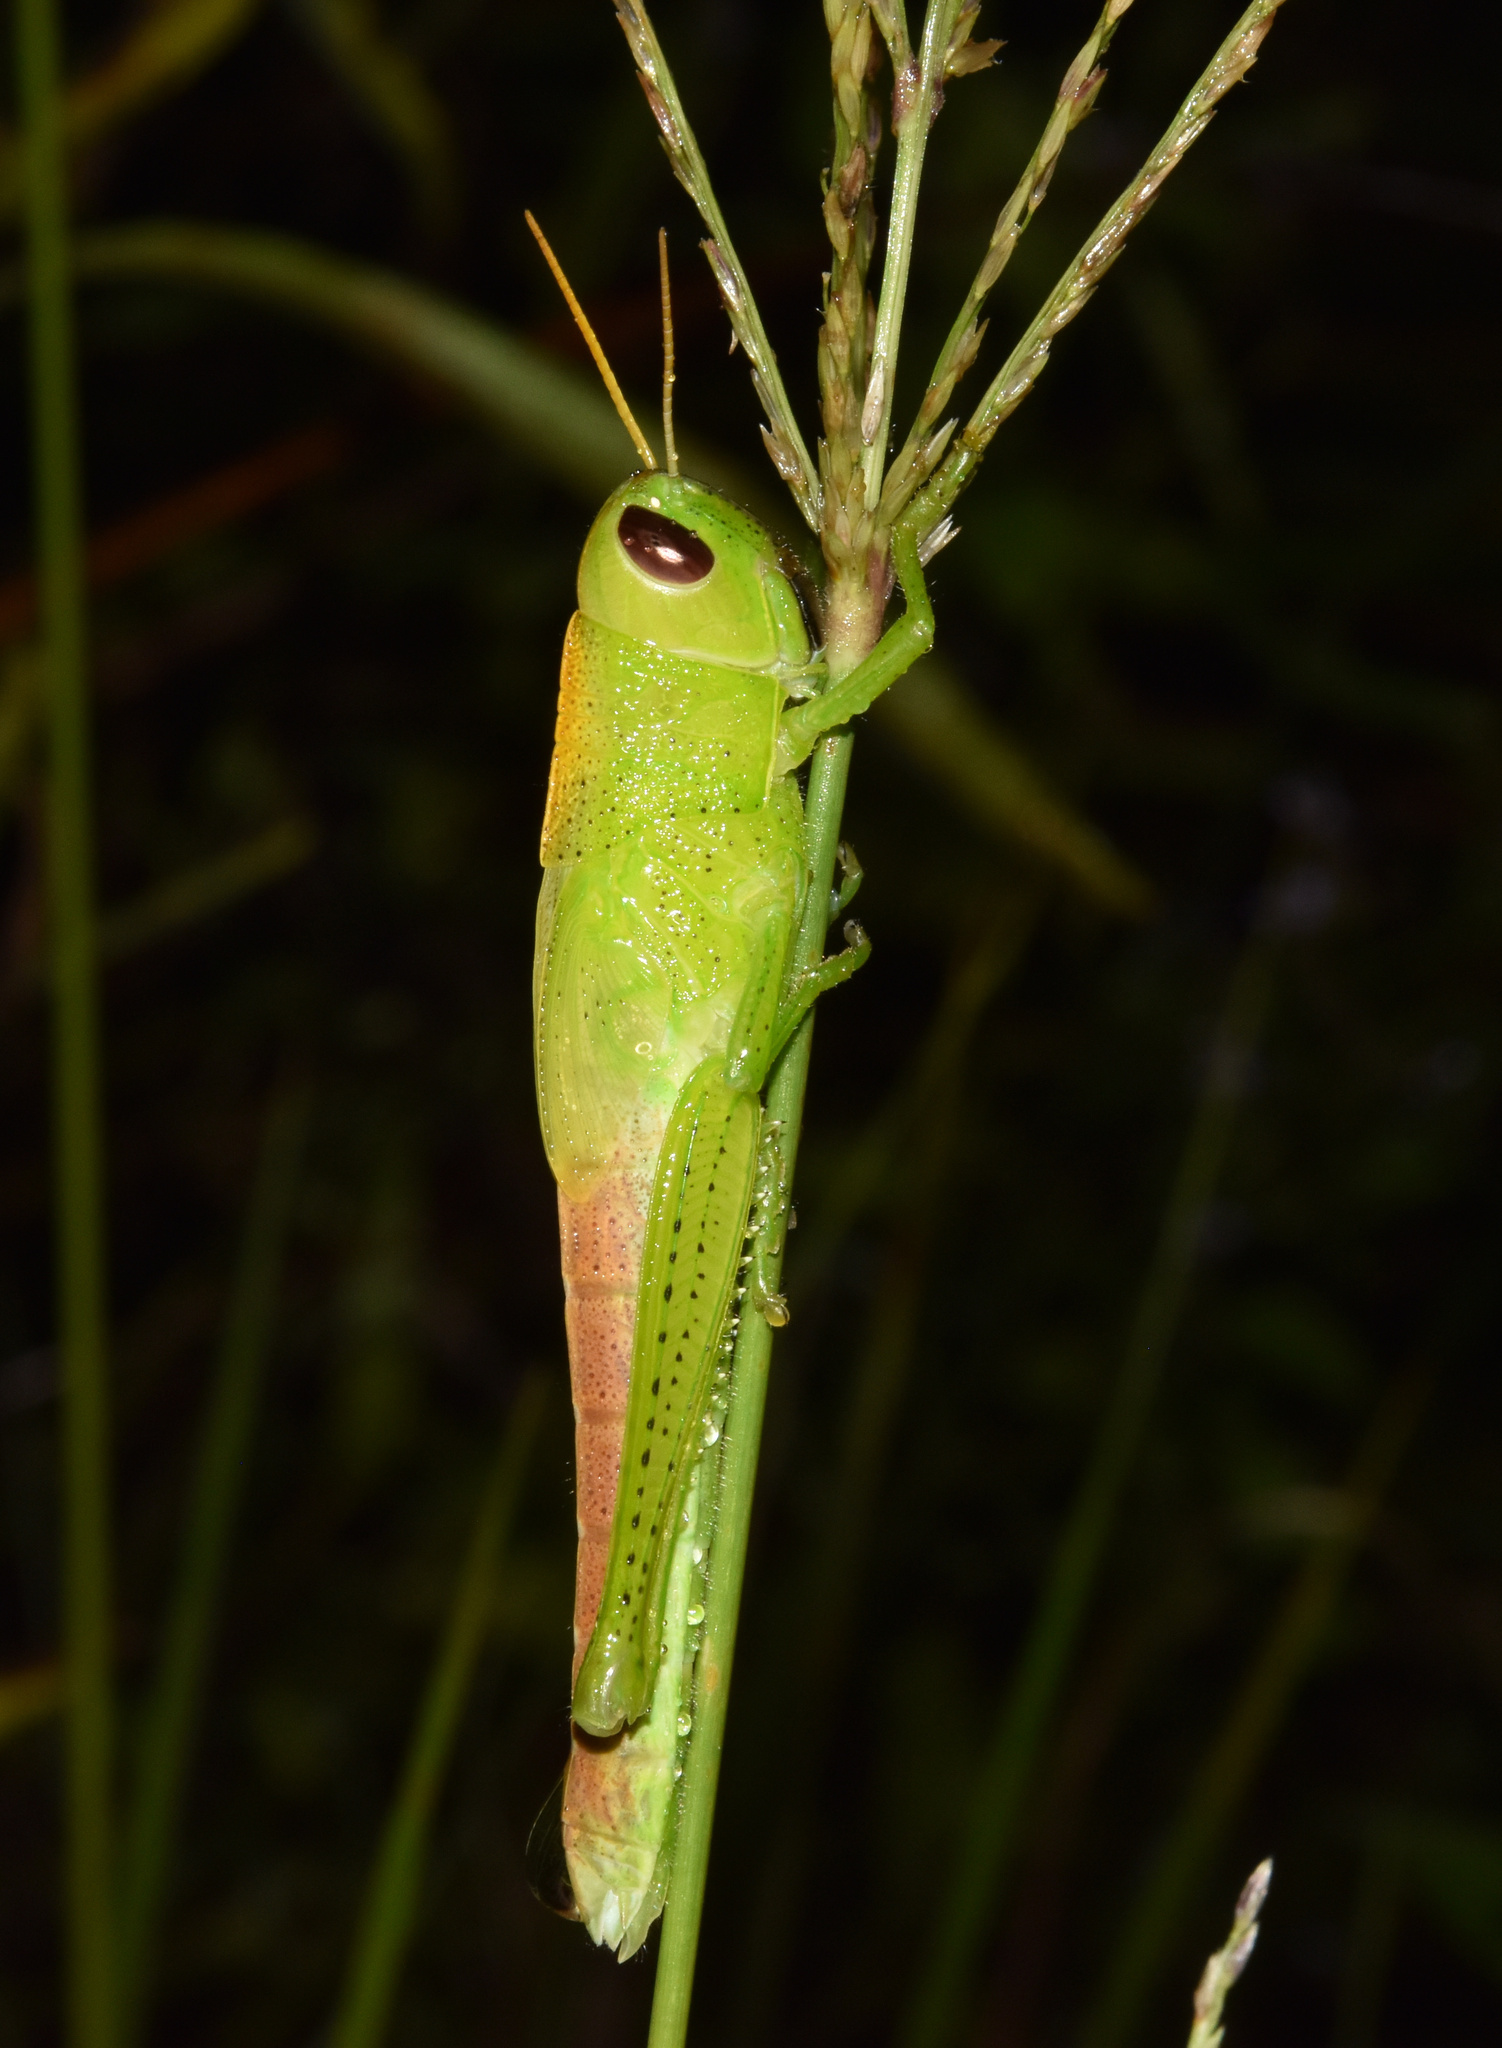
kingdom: Animalia
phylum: Arthropoda
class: Insecta
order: Orthoptera
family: Acrididae
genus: Oraistes
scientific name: Oraistes luridus
